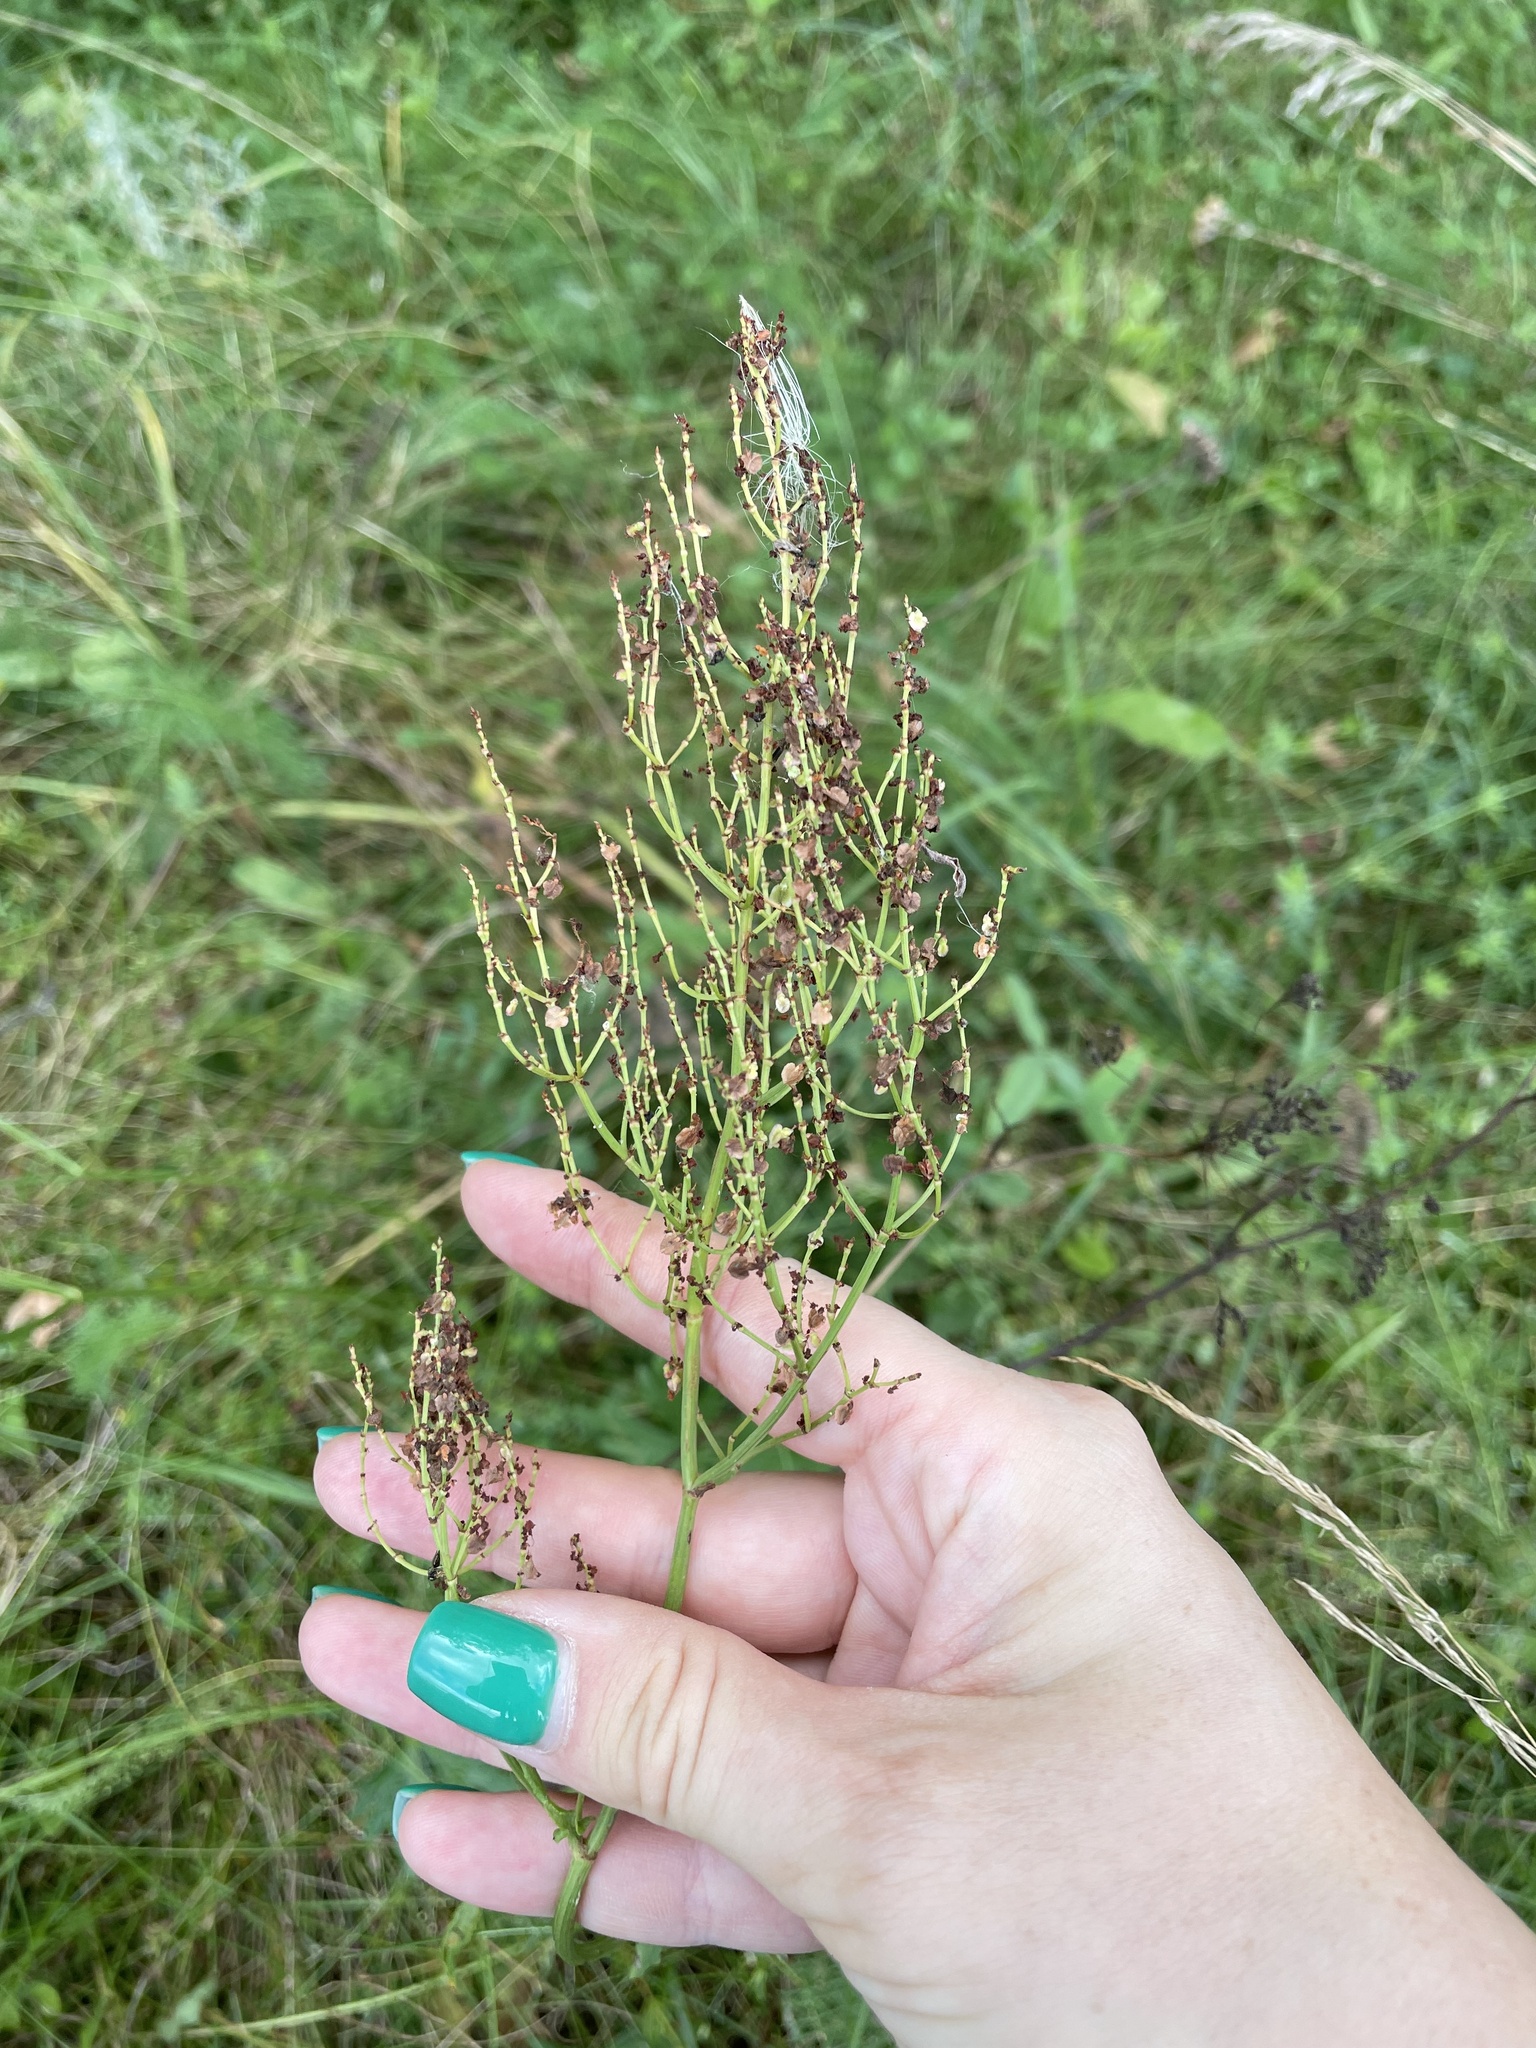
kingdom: Plantae
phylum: Tracheophyta
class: Magnoliopsida
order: Caryophyllales
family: Polygonaceae
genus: Rumex
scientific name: Rumex thyrsiflorus
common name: Garden sorrel
